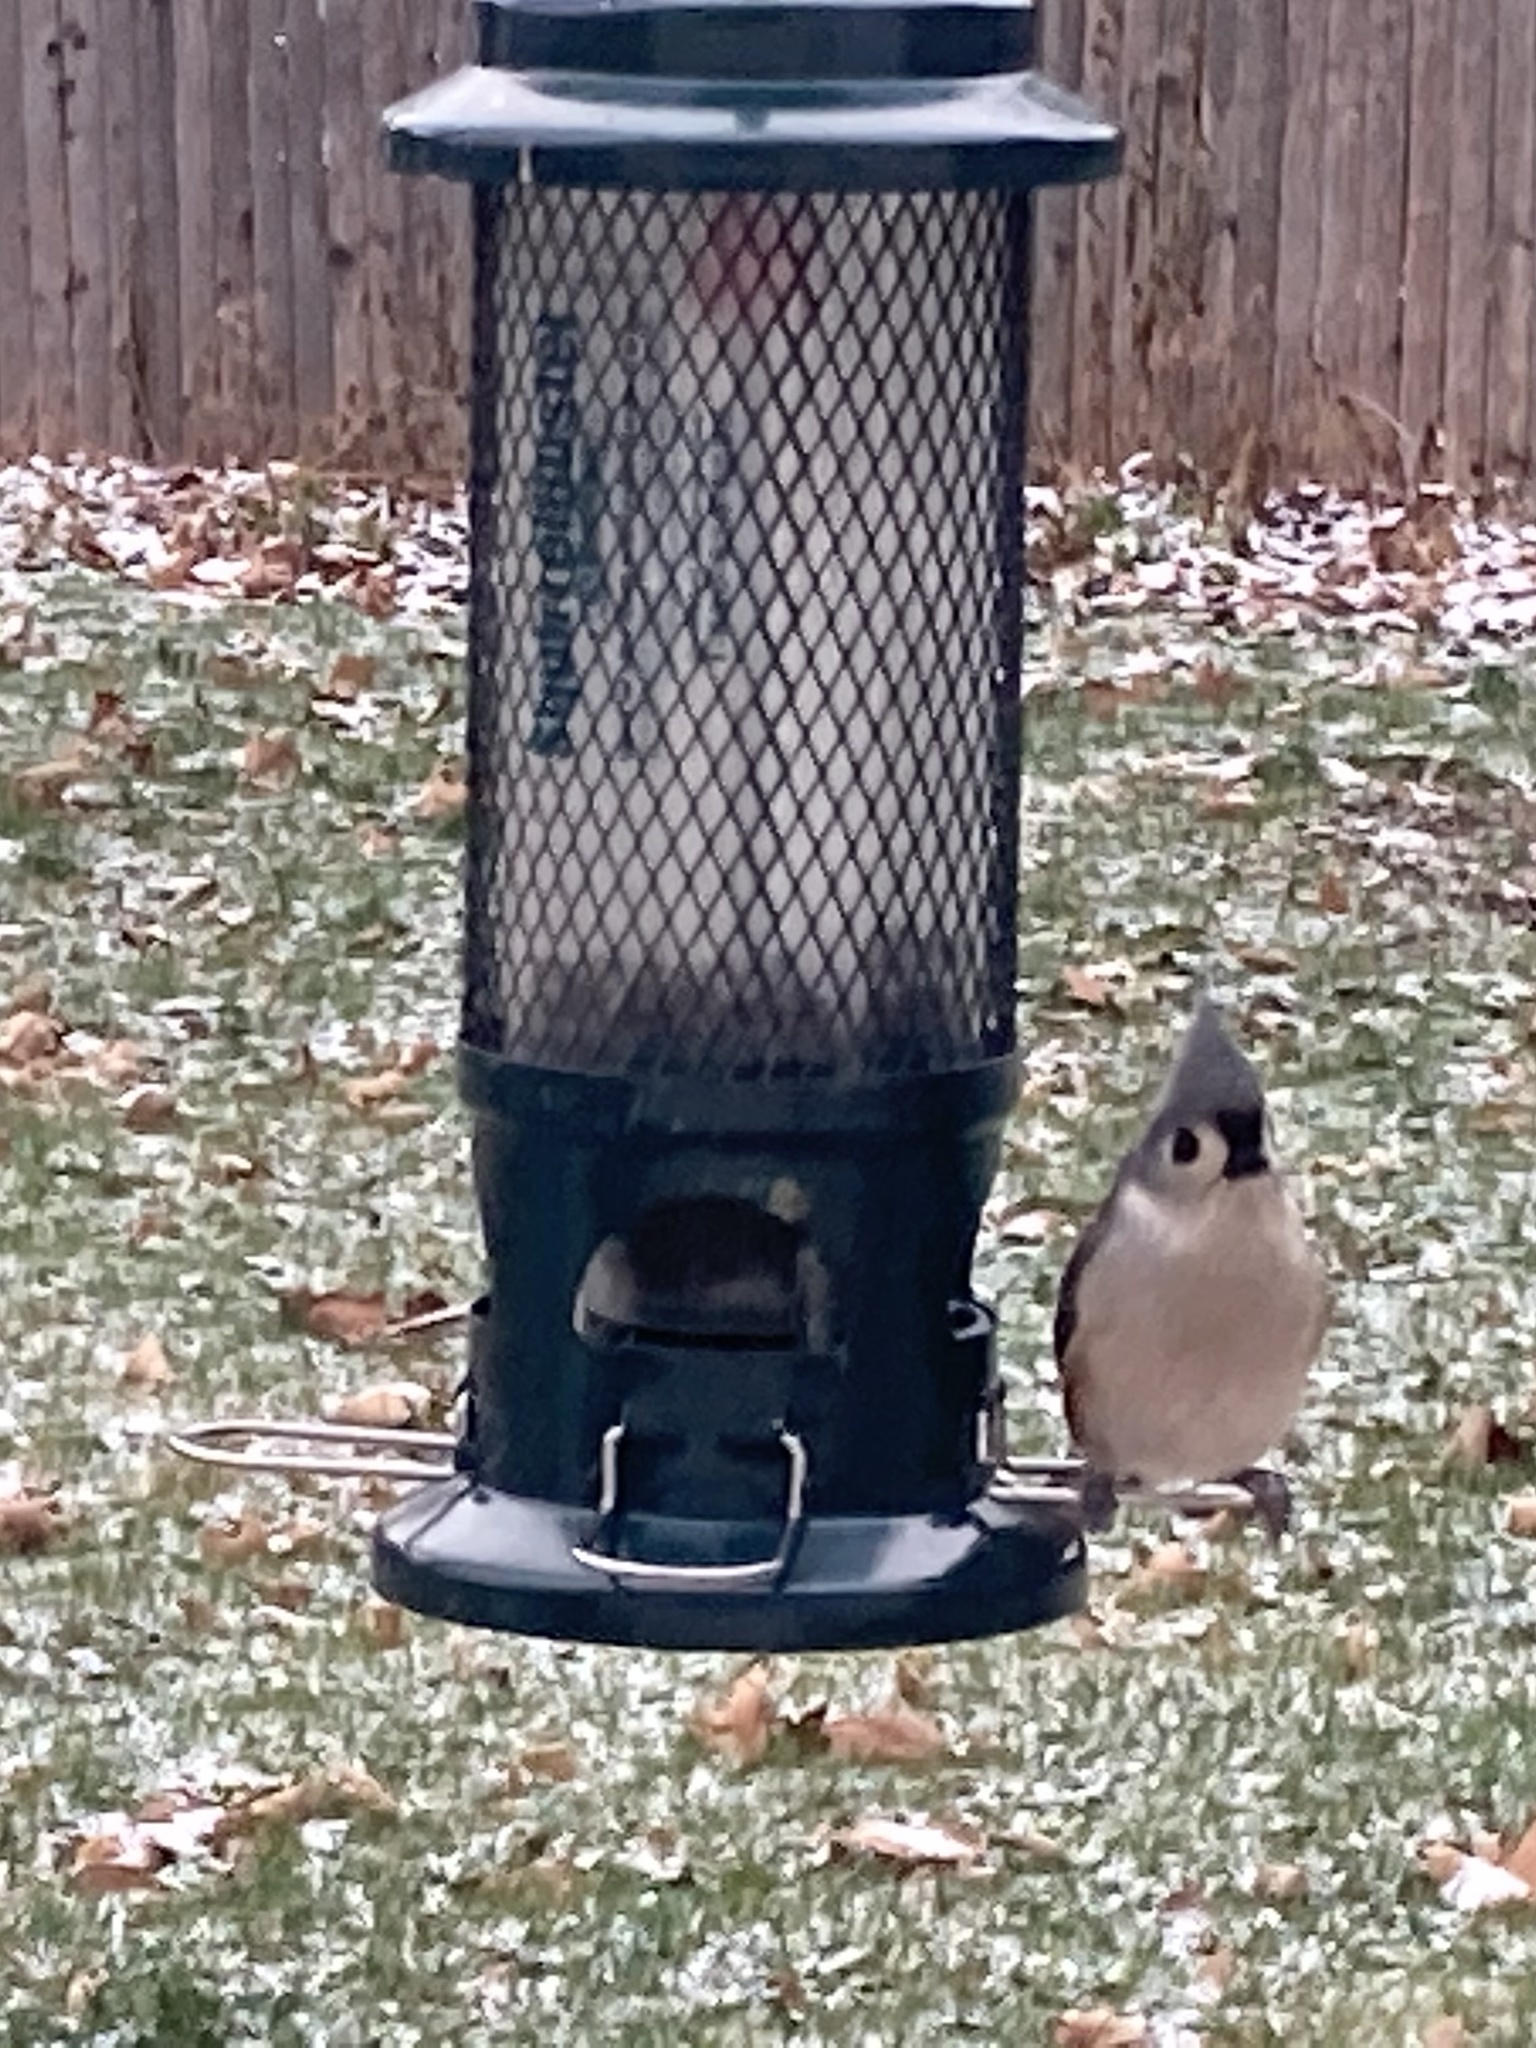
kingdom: Animalia
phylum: Chordata
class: Aves
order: Passeriformes
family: Paridae
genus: Baeolophus
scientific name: Baeolophus bicolor
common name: Tufted titmouse
